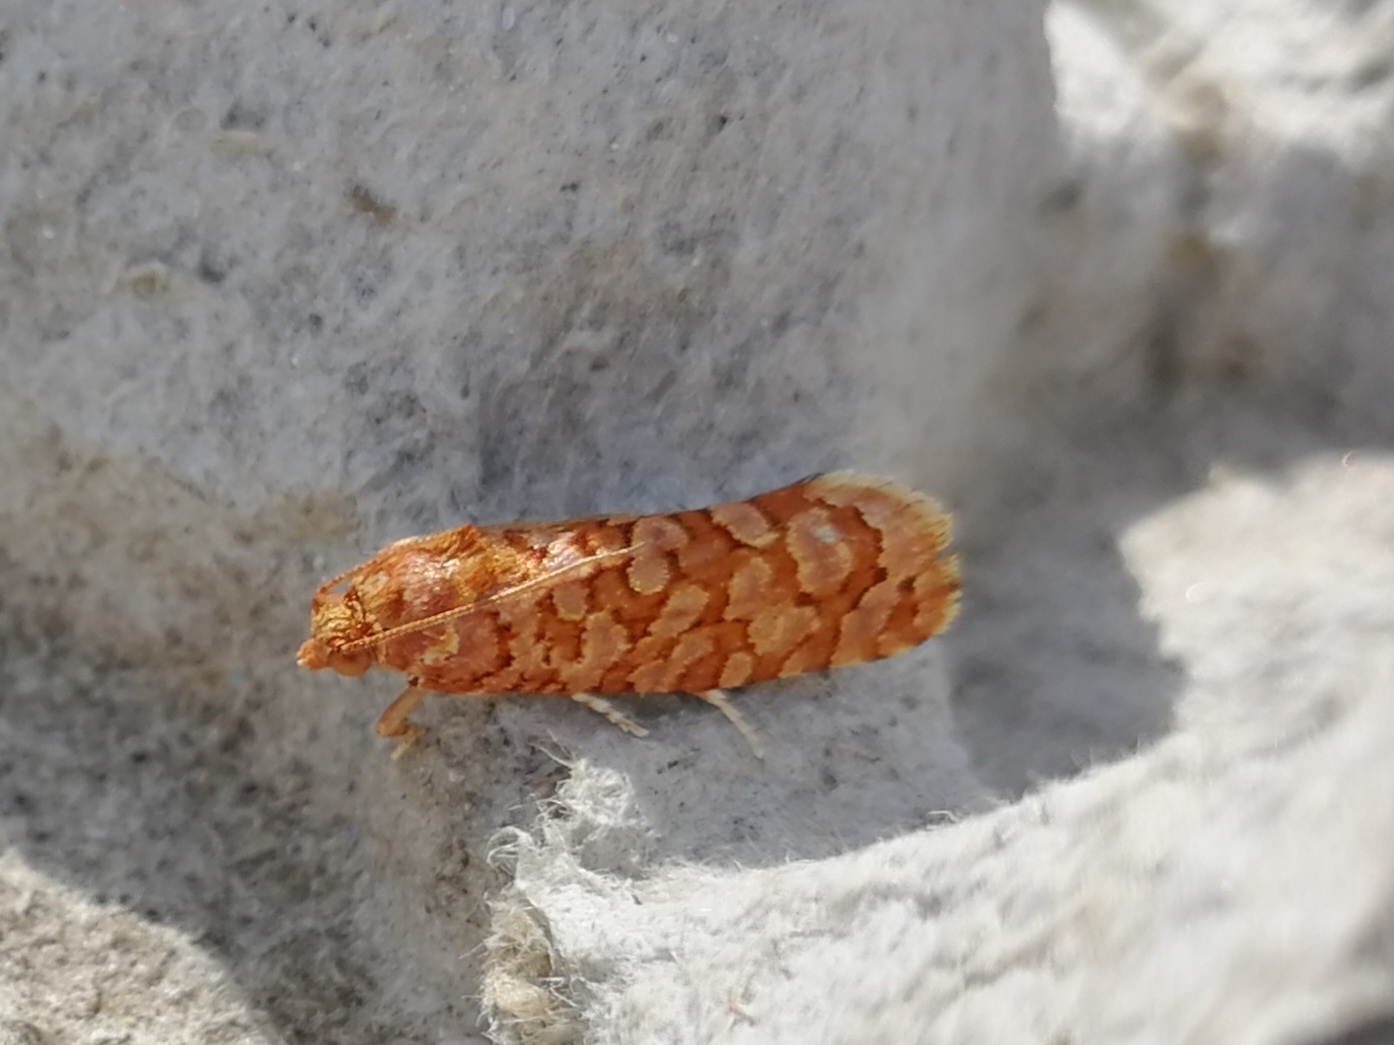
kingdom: Animalia
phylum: Arthropoda
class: Insecta
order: Lepidoptera
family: Tortricidae
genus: Lozotaeniodes
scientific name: Lozotaeniodes formosana
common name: Orange pine twist
